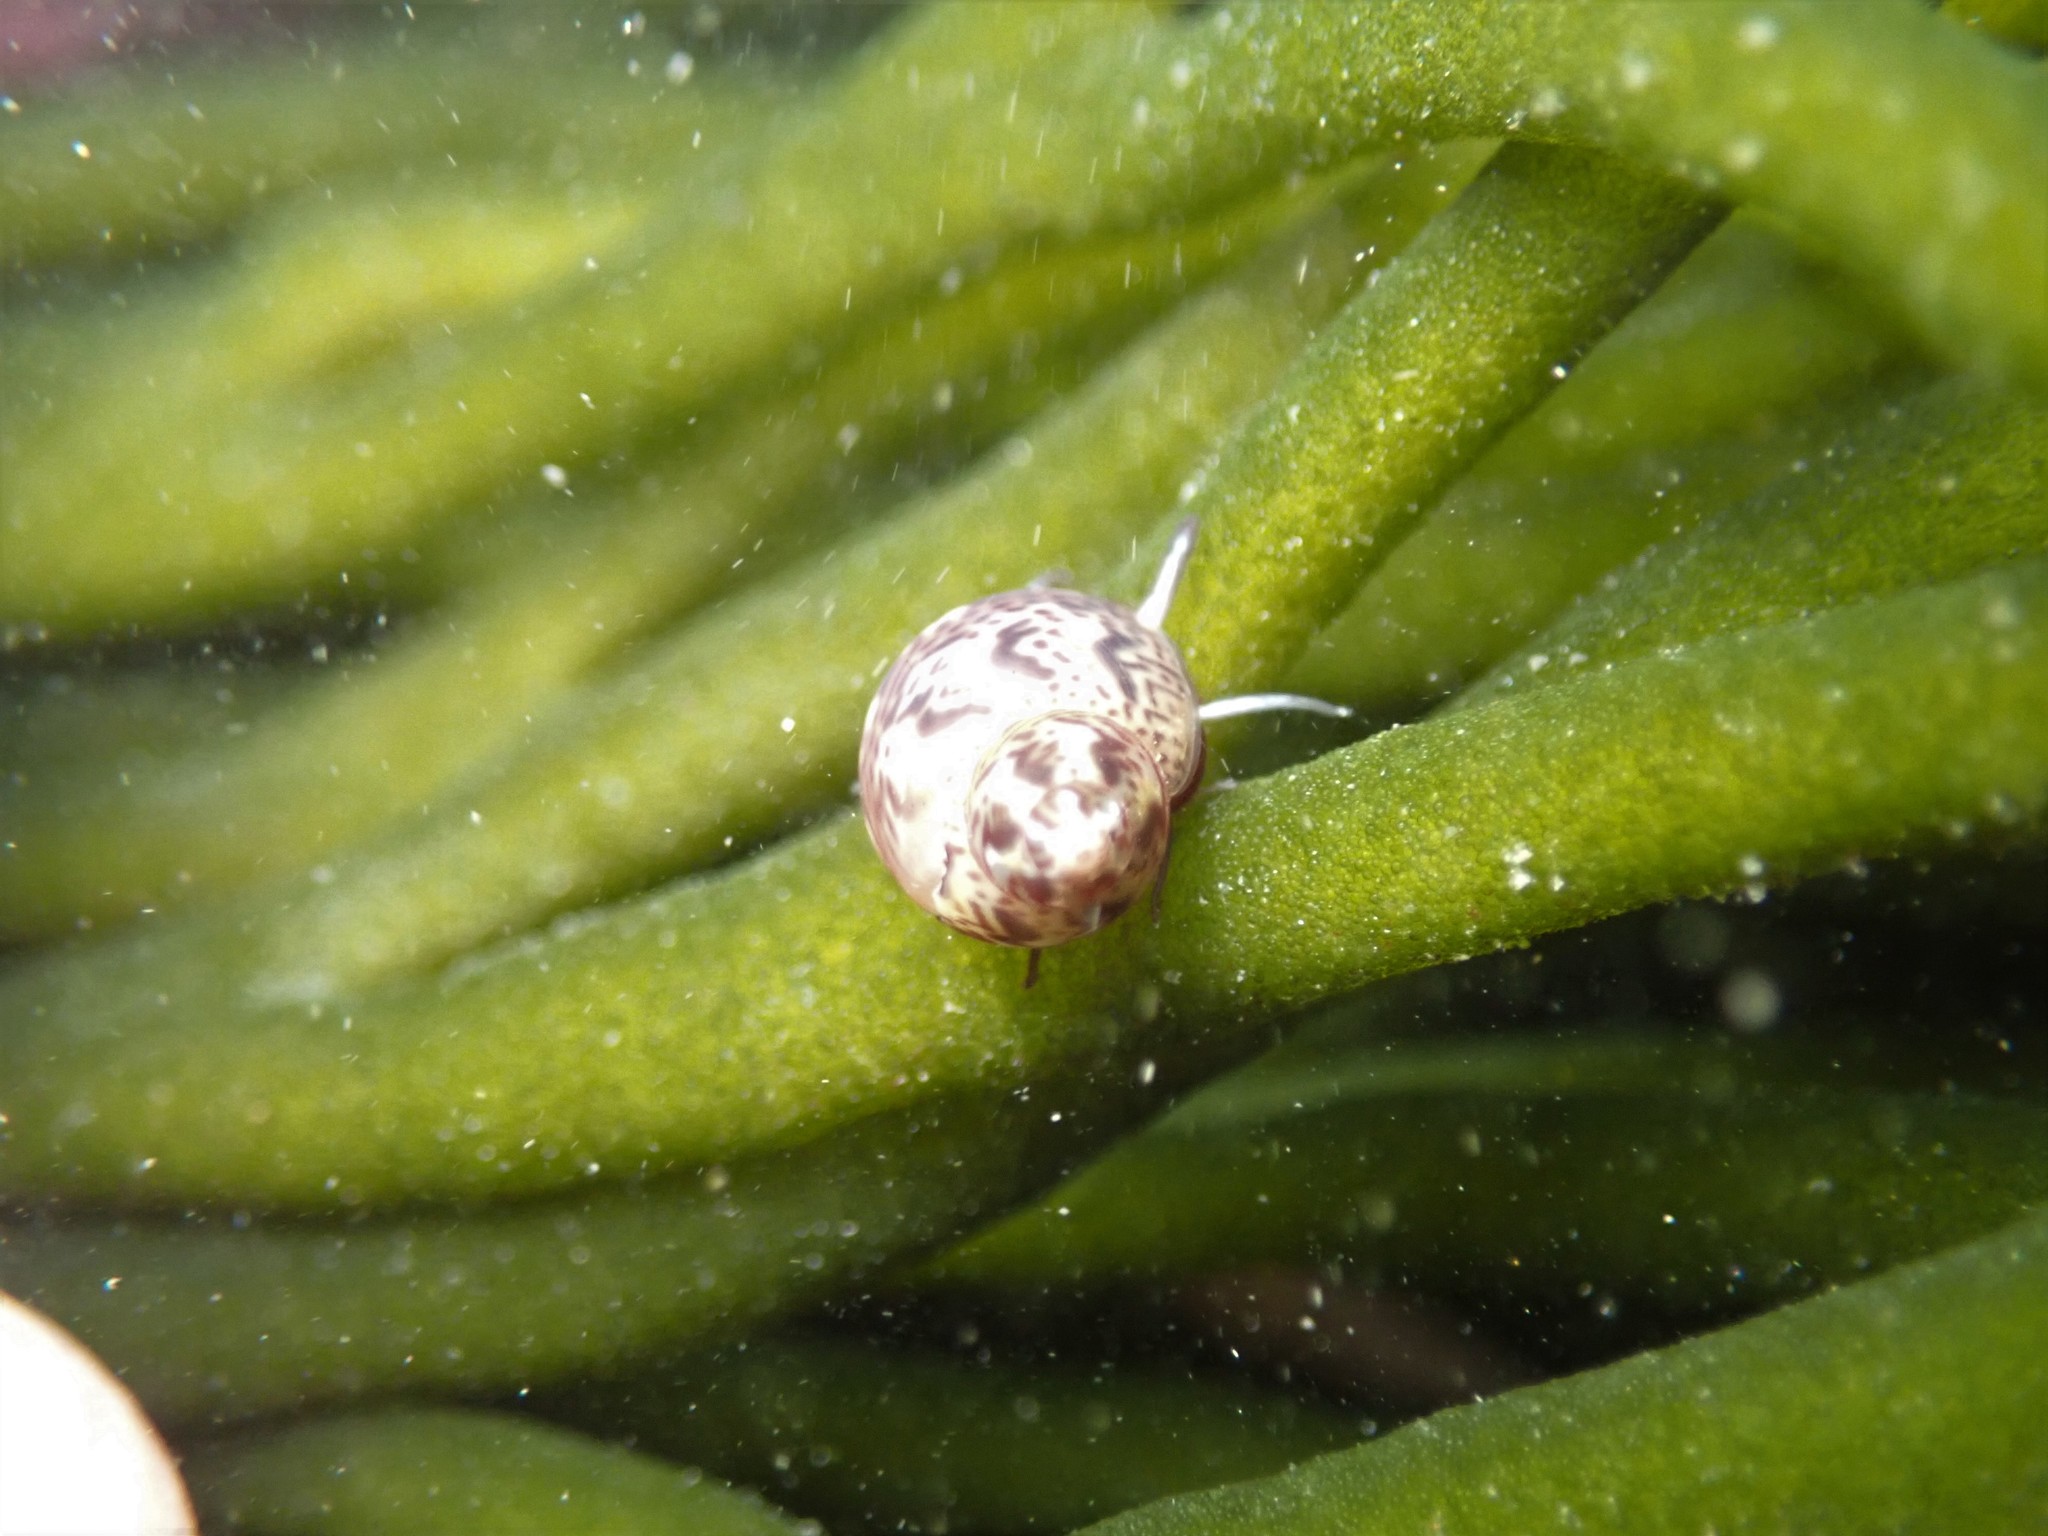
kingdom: Animalia
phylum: Mollusca
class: Gastropoda
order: Trochida
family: Phasianellidae
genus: Tricolia
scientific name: Tricolia pullus
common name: Pheasant shell
